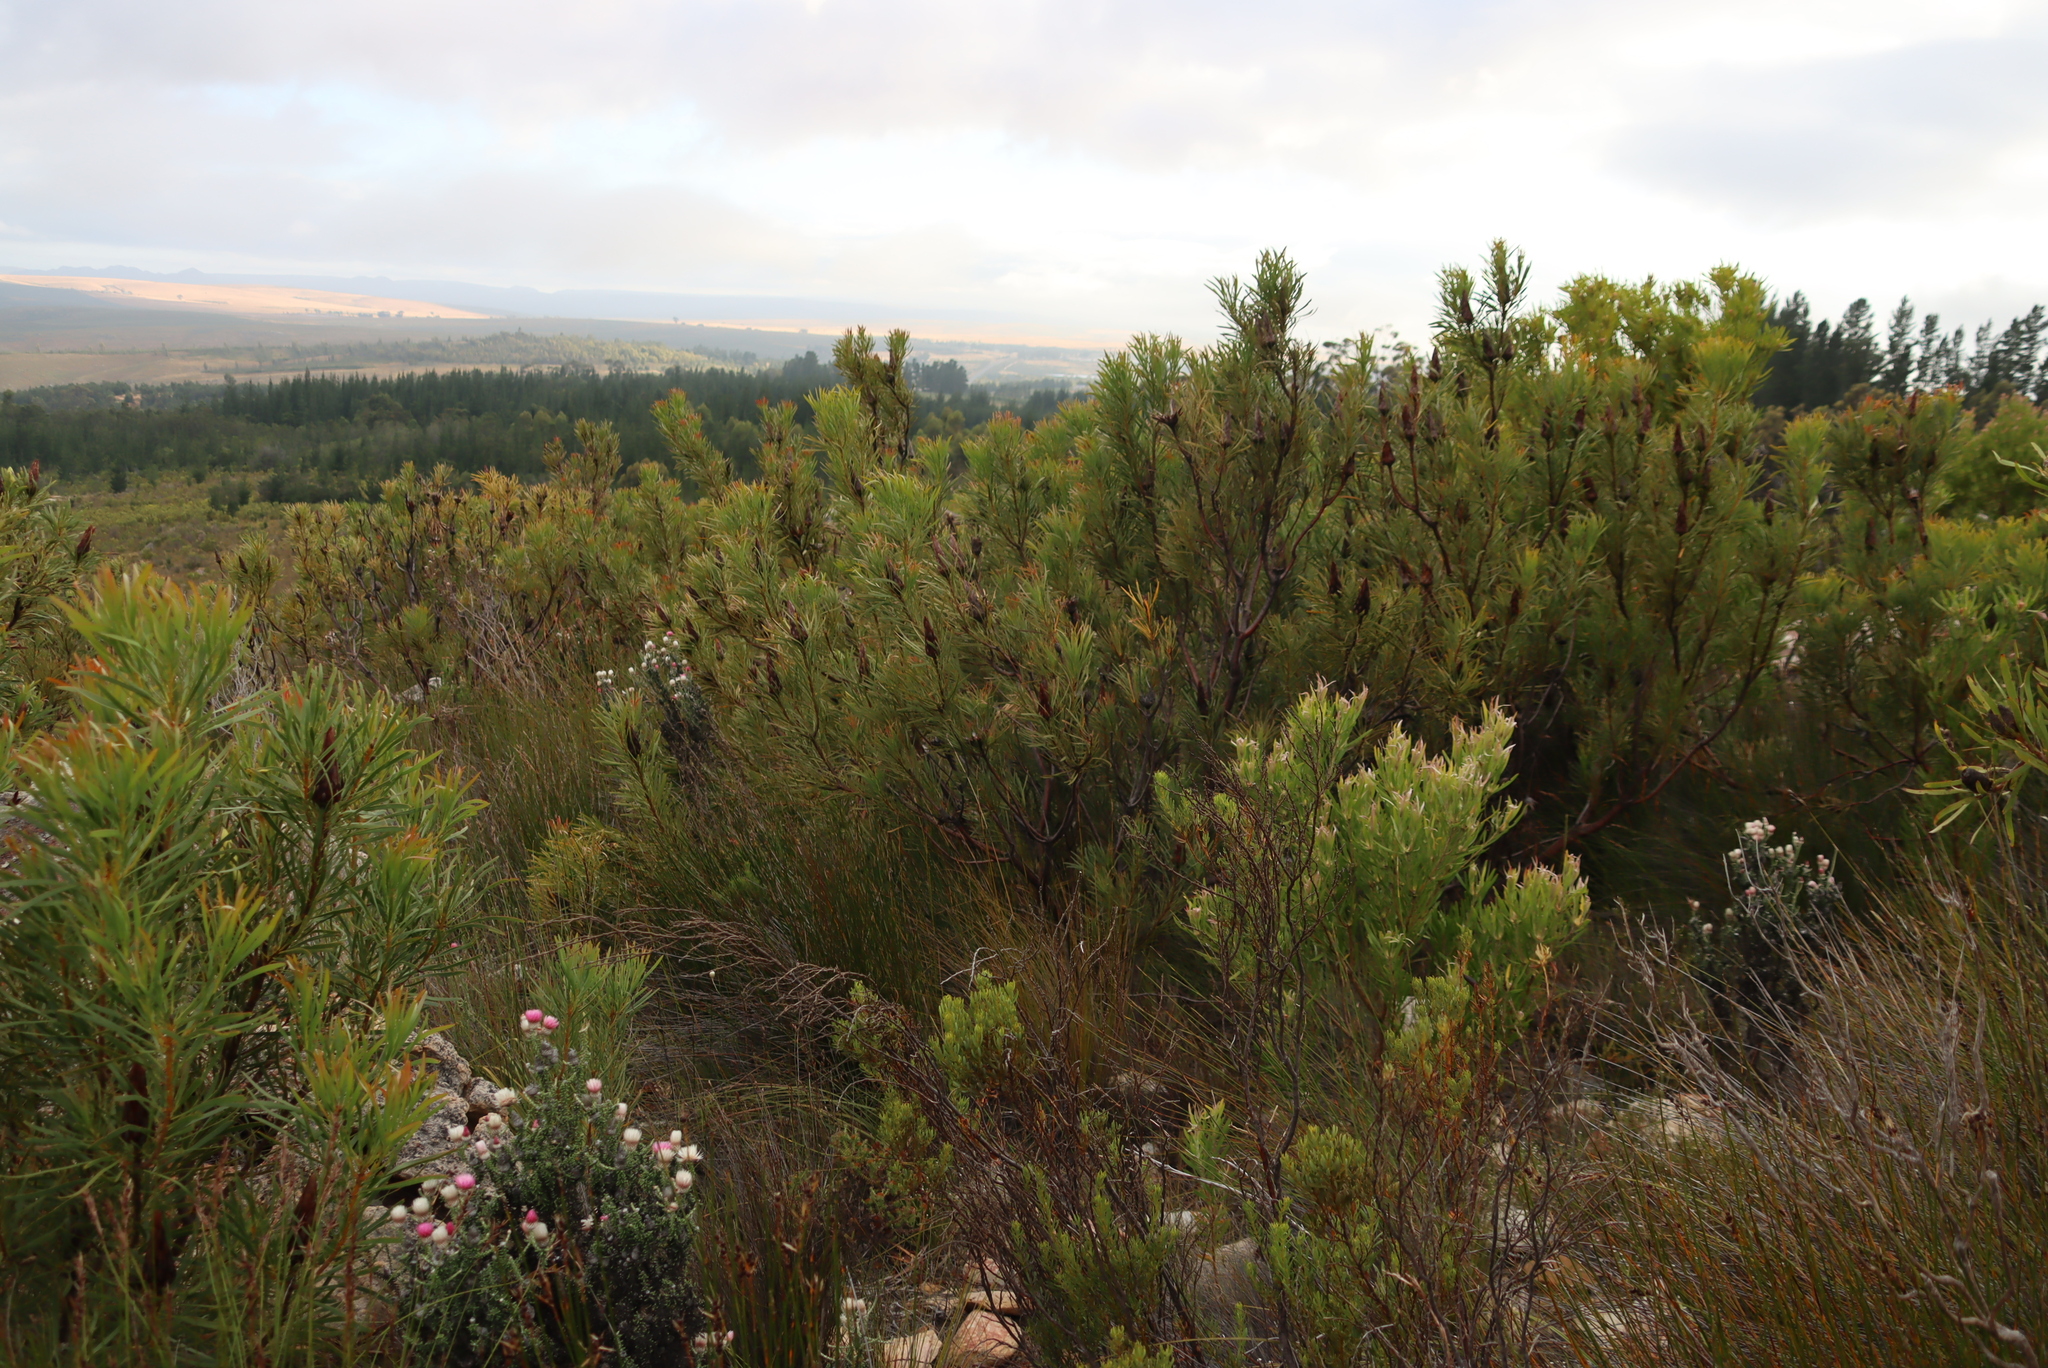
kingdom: Plantae
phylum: Tracheophyta
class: Magnoliopsida
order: Proteales
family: Proteaceae
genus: Protea
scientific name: Protea repens
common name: Sugarbush
